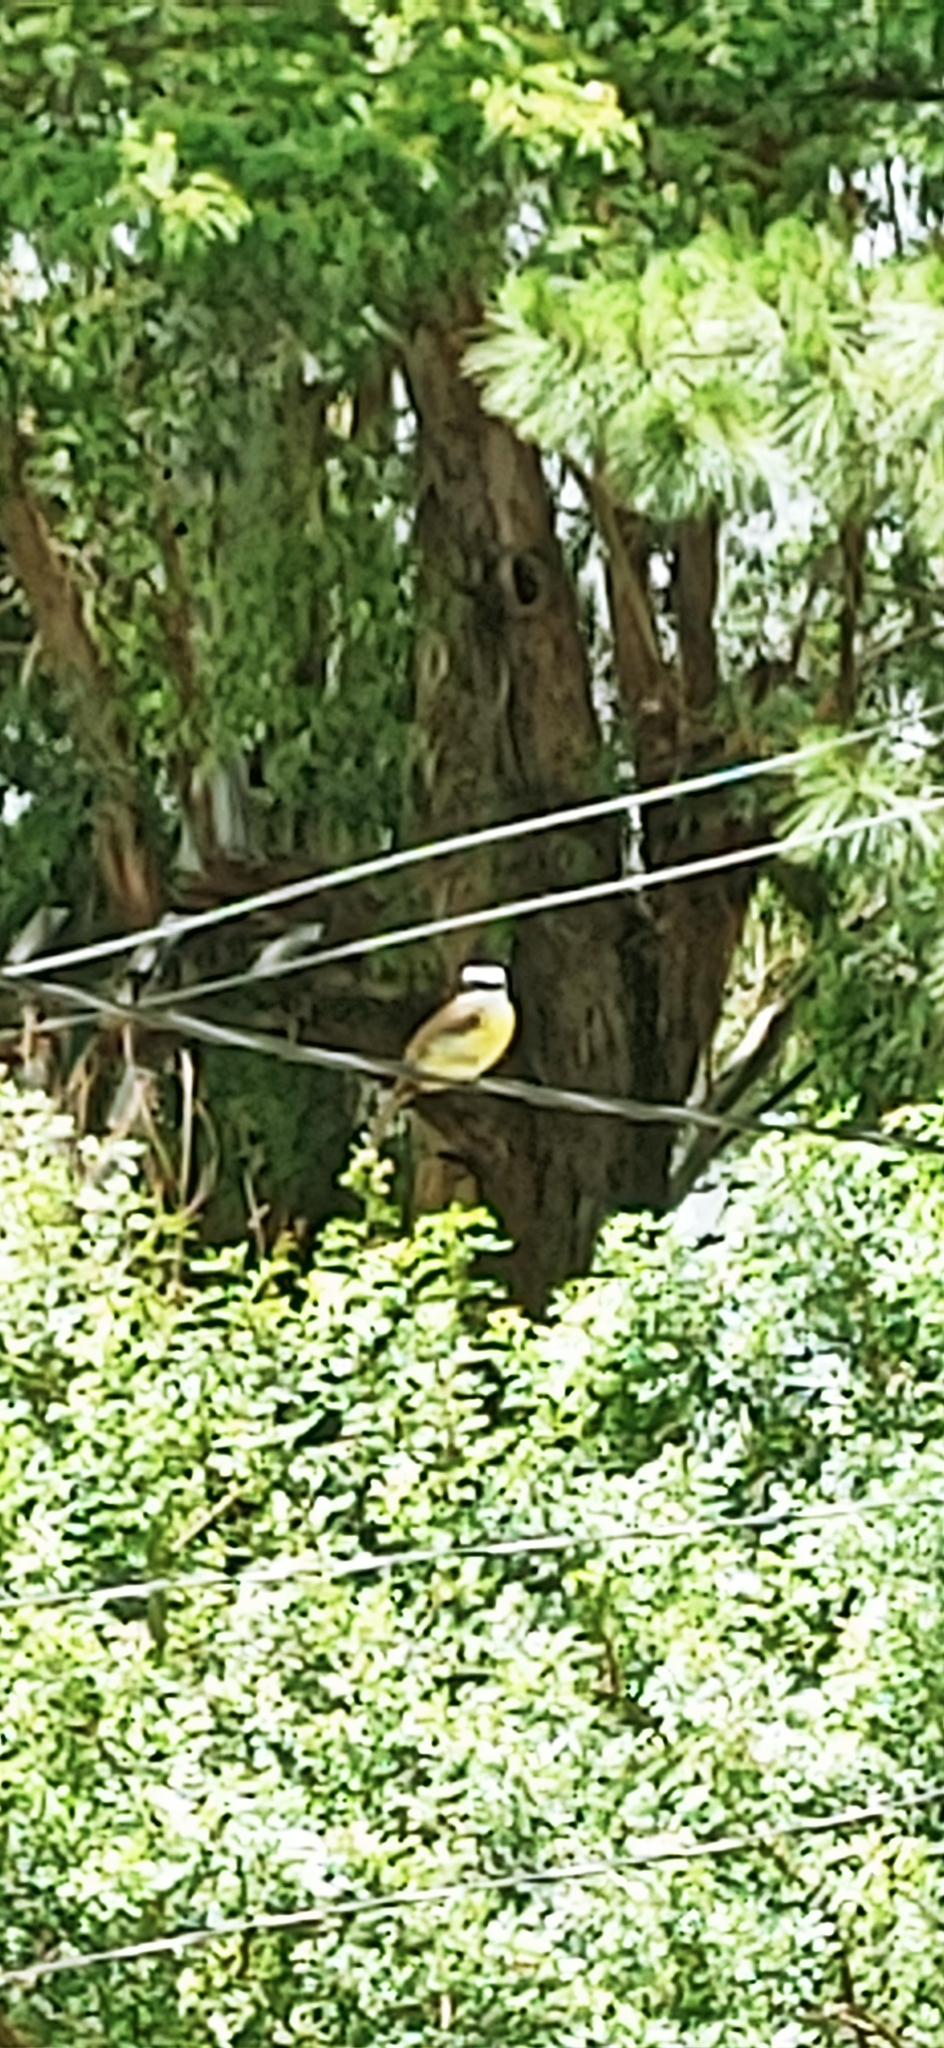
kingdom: Animalia
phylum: Chordata
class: Aves
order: Passeriformes
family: Tyrannidae
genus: Pitangus
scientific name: Pitangus sulphuratus
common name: Great kiskadee
